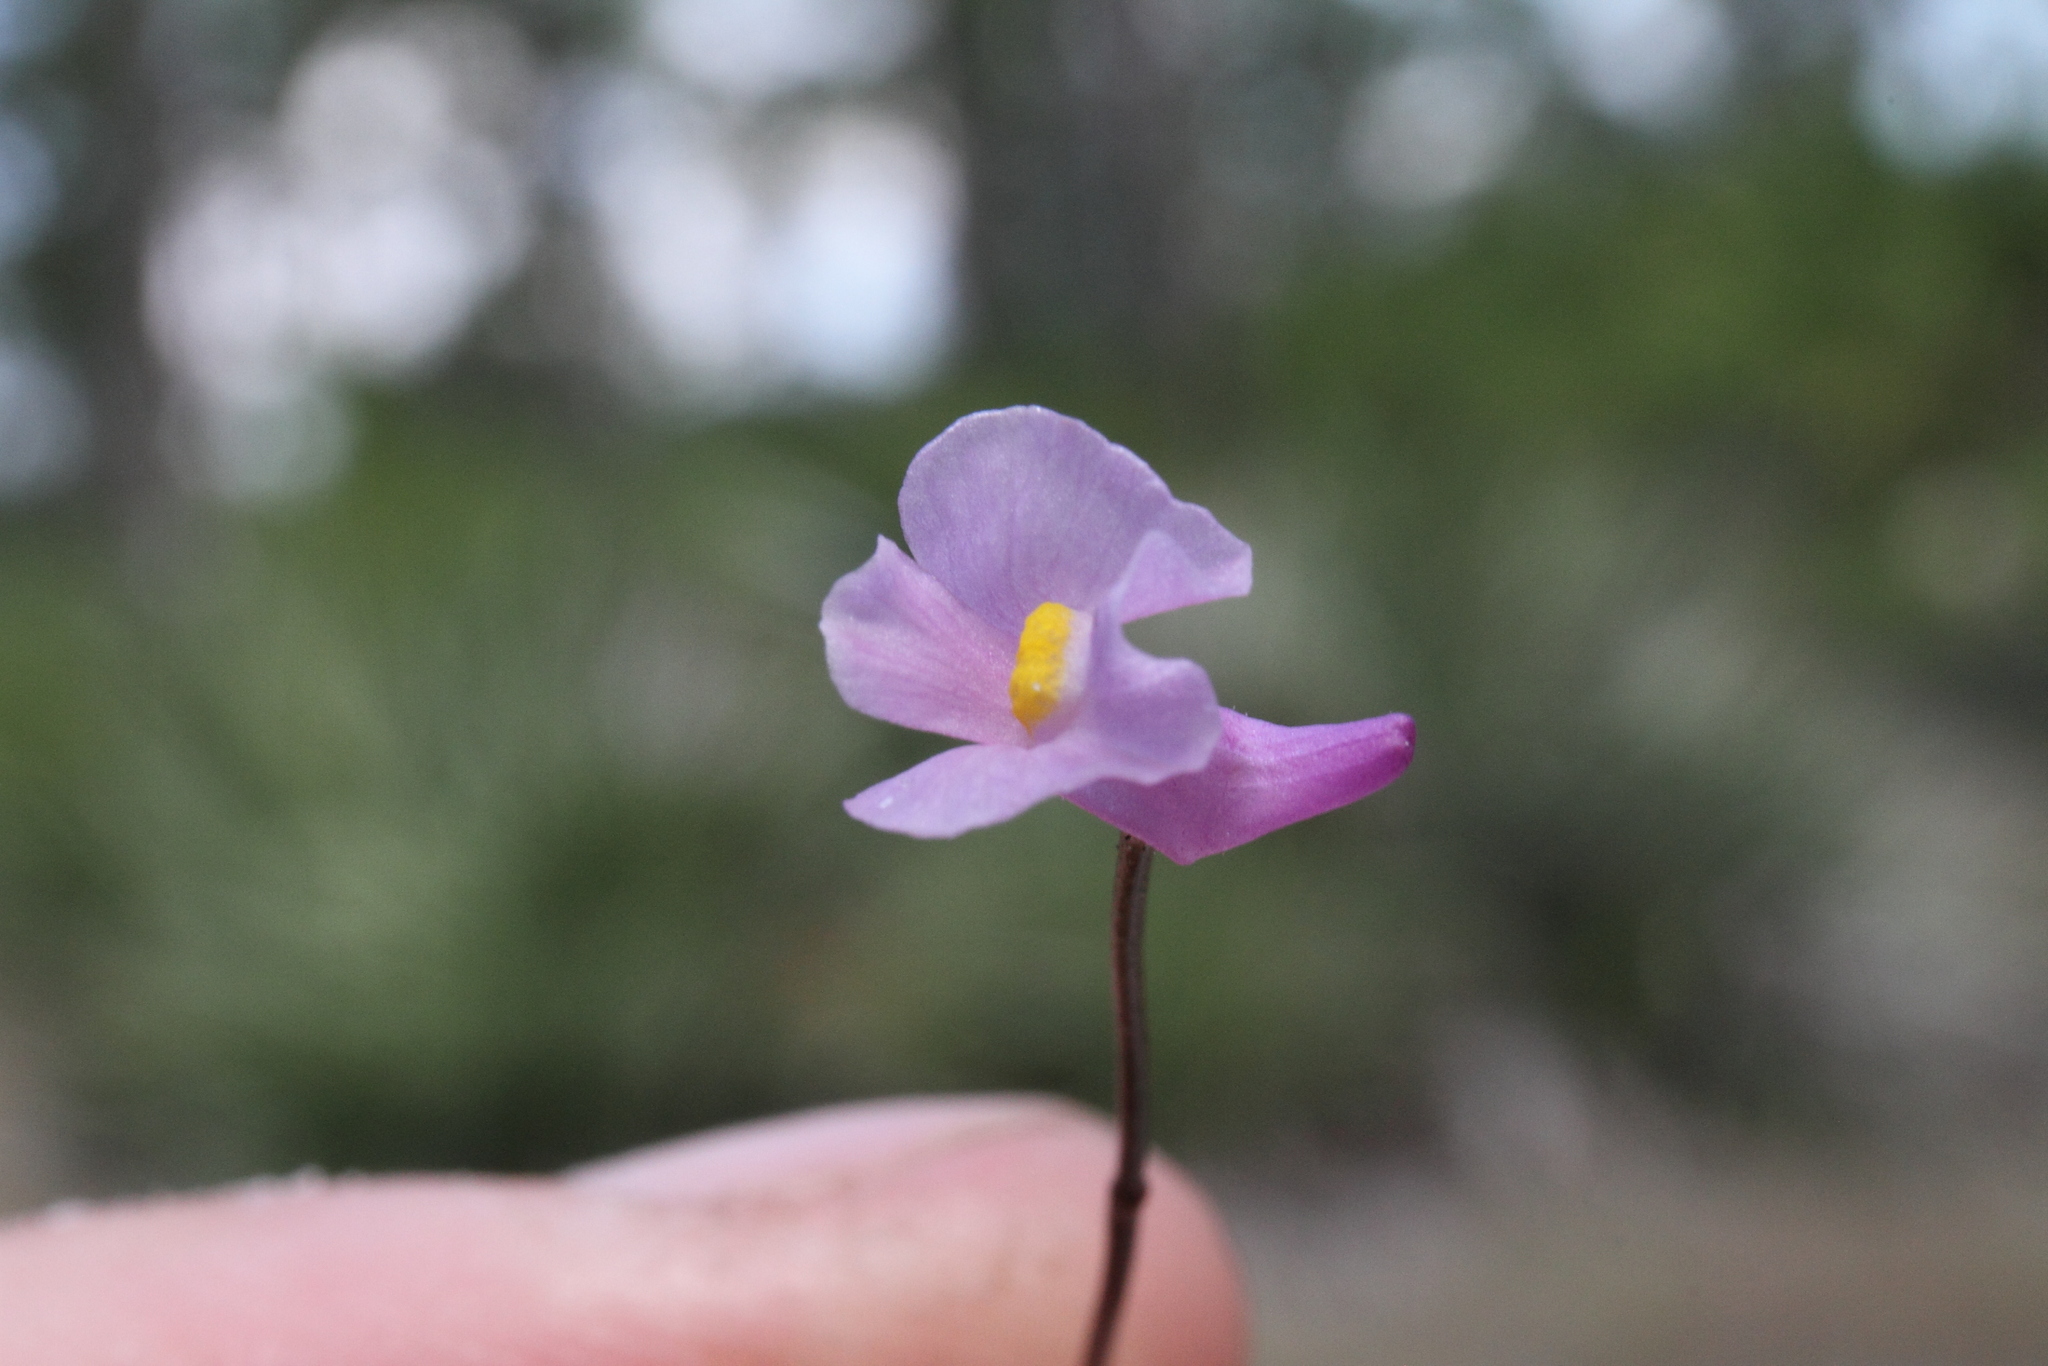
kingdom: Plantae
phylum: Tracheophyta
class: Magnoliopsida
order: Lamiales
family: Lentibulariaceae
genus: Utricularia
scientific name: Utricularia resupinata
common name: Northeastern bladderwort
